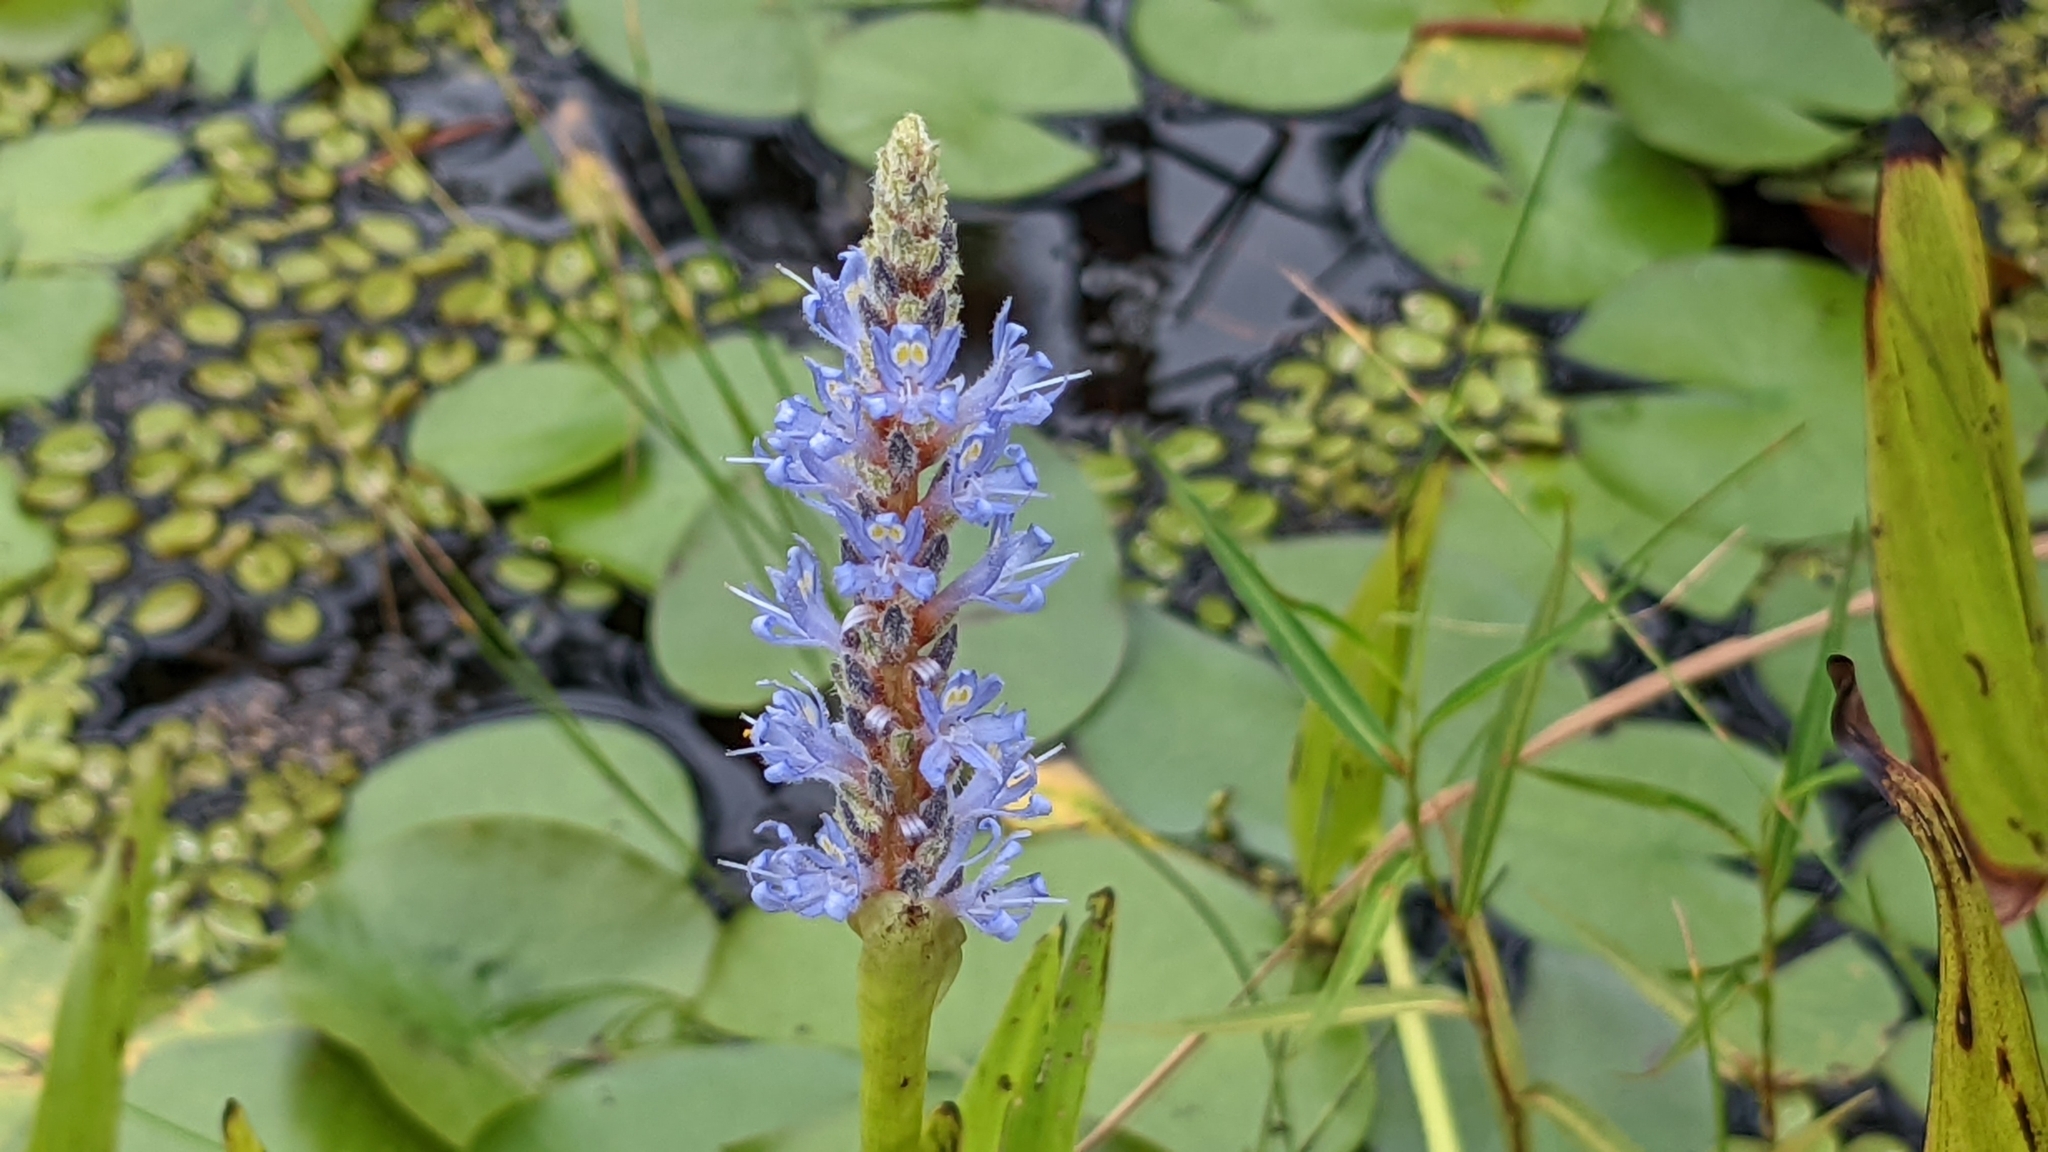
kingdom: Plantae
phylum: Tracheophyta
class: Liliopsida
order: Commelinales
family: Pontederiaceae
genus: Pontederia
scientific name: Pontederia cordata
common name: Pickerelweed
